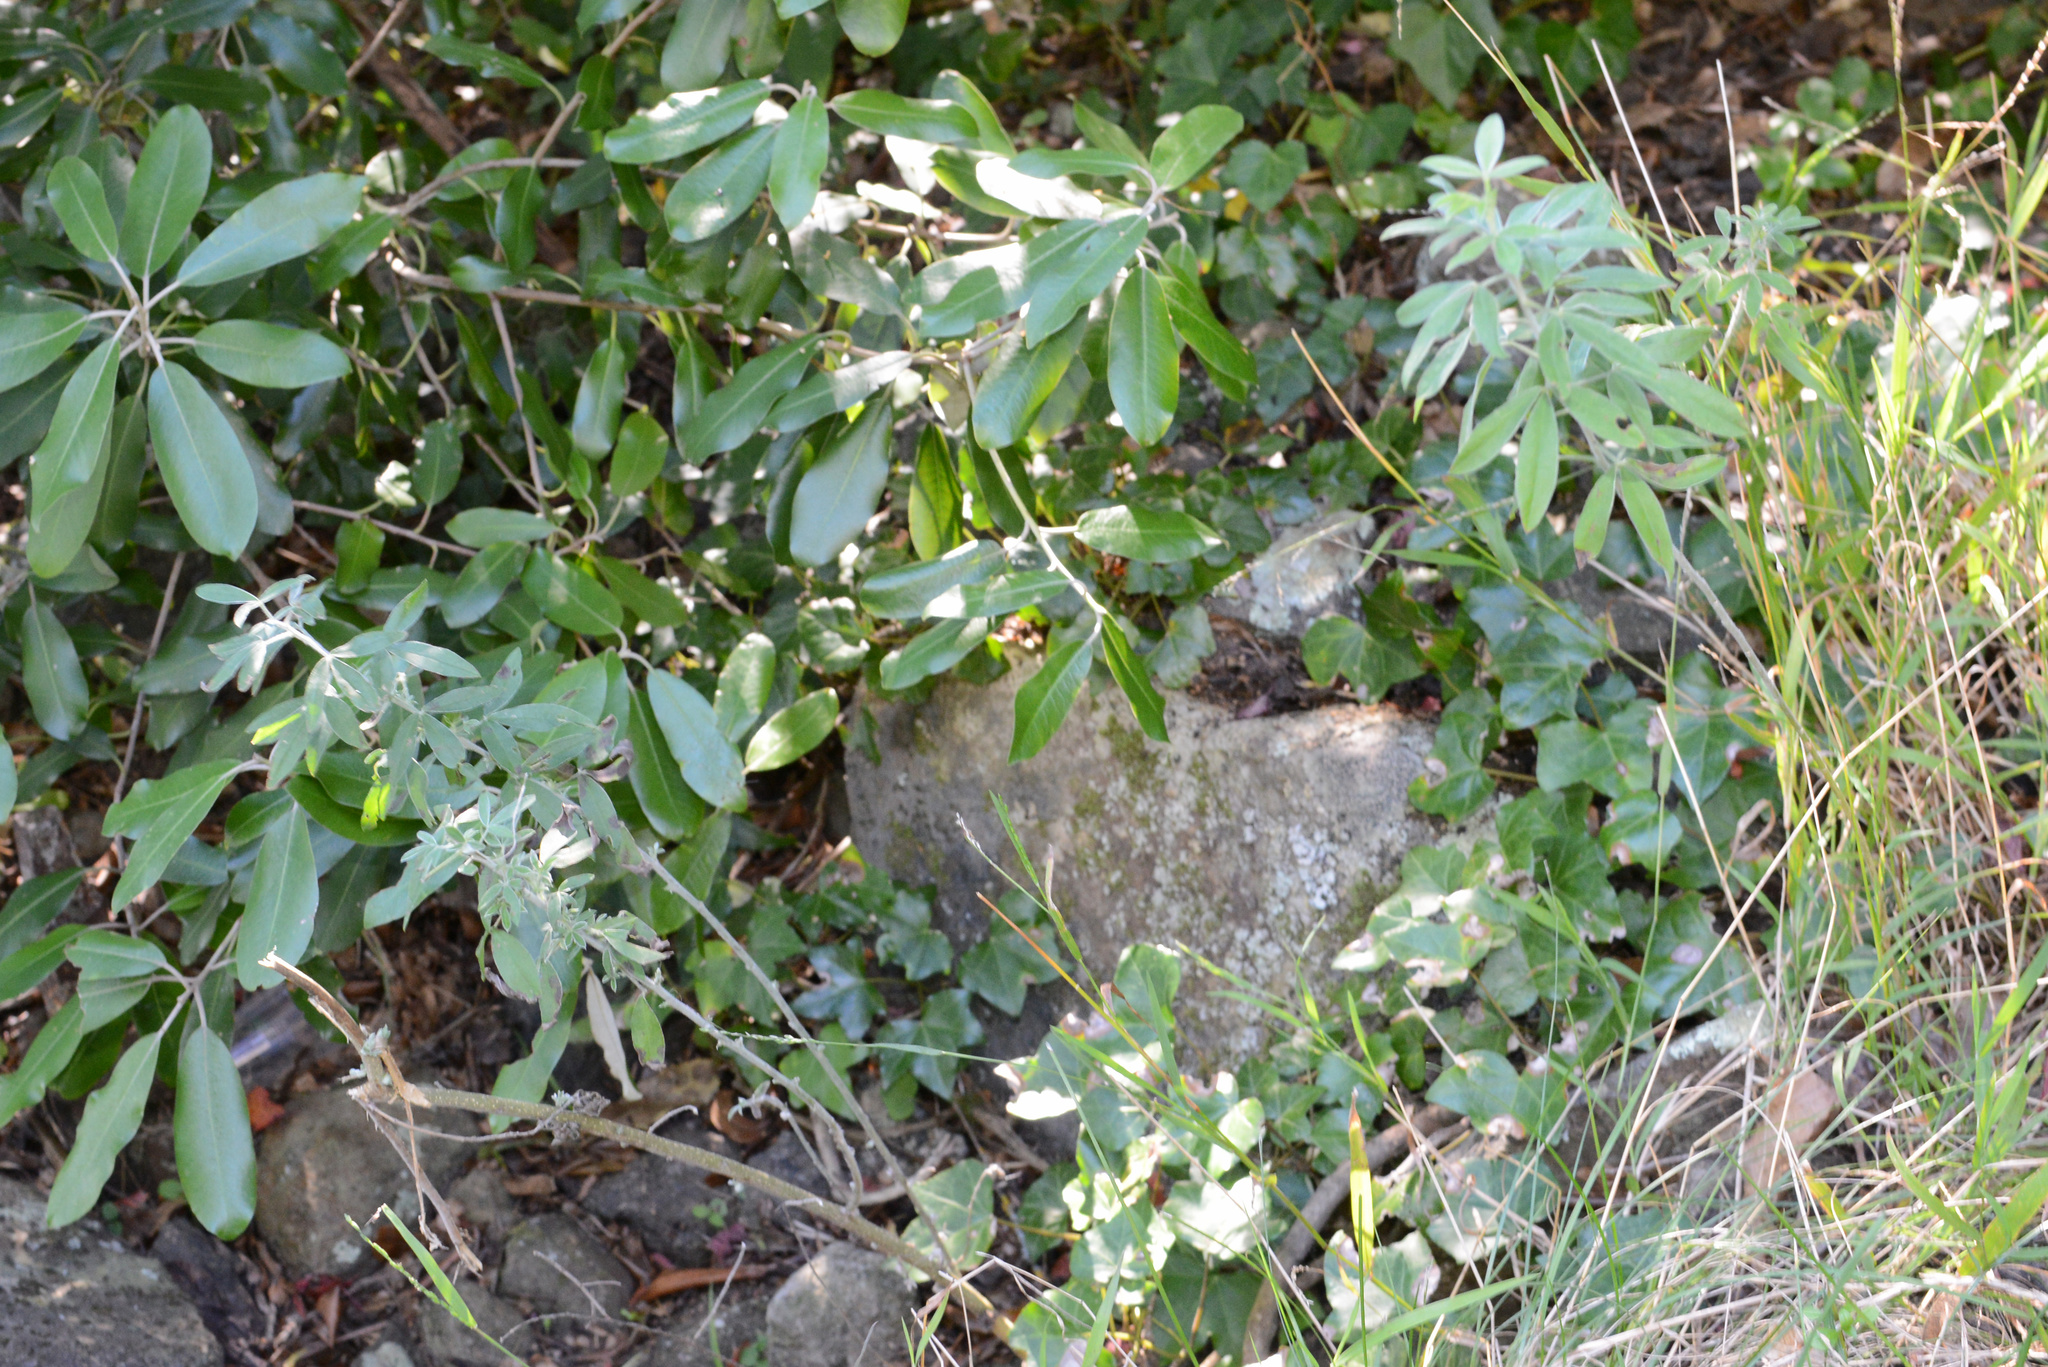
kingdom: Plantae
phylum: Tracheophyta
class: Magnoliopsida
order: Fabales
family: Fabaceae
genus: Chamaecytisus
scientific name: Chamaecytisus prolifer
